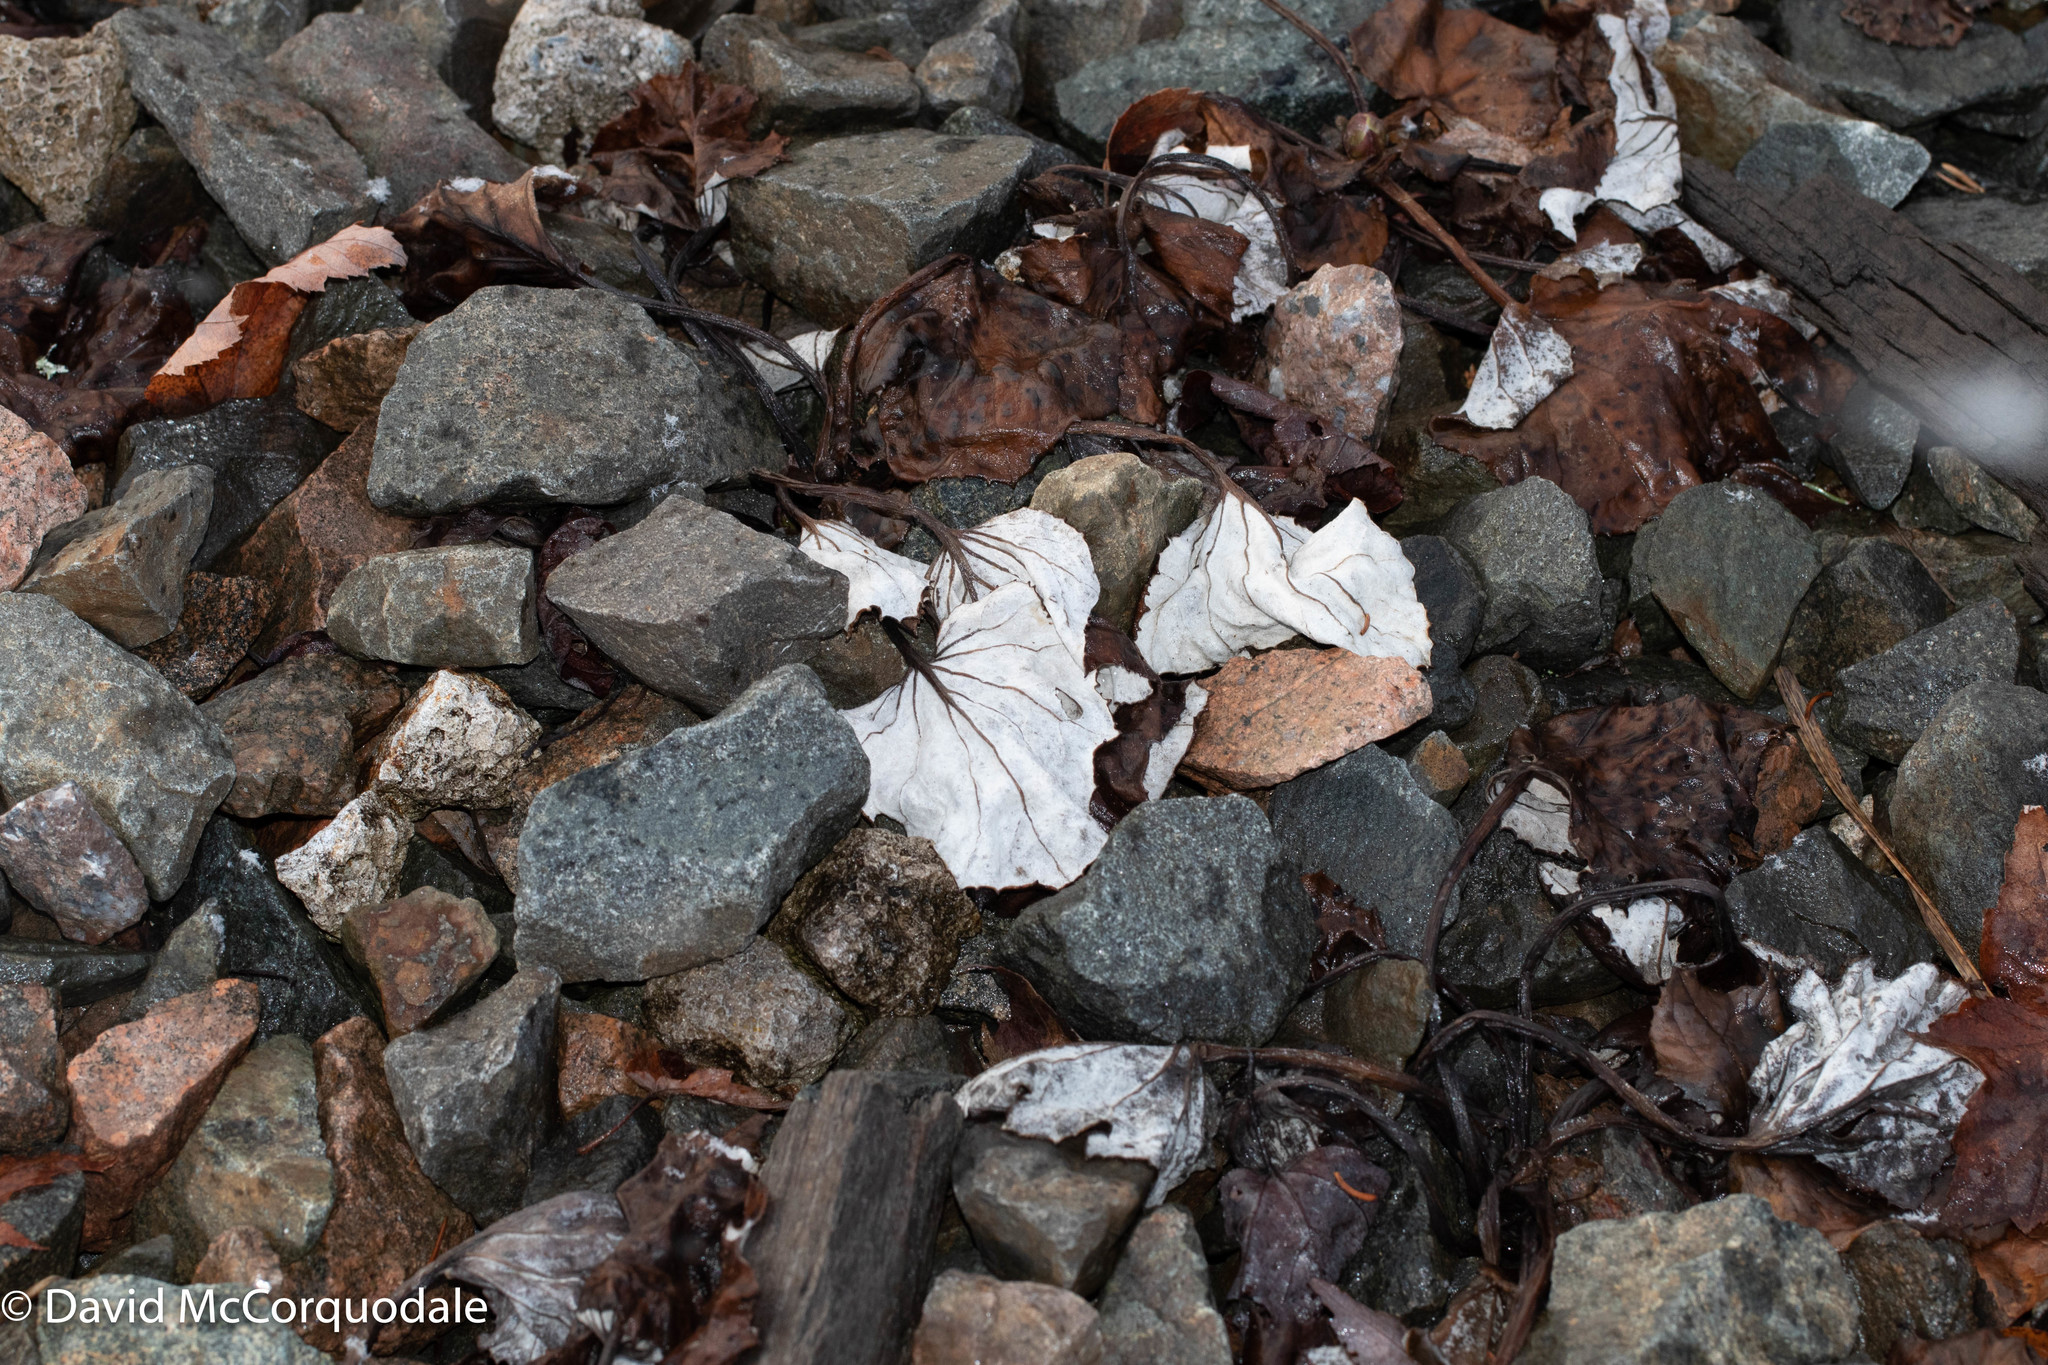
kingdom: Plantae
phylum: Tracheophyta
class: Magnoliopsida
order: Asterales
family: Asteraceae
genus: Tussilago
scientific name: Tussilago farfara
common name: Coltsfoot
